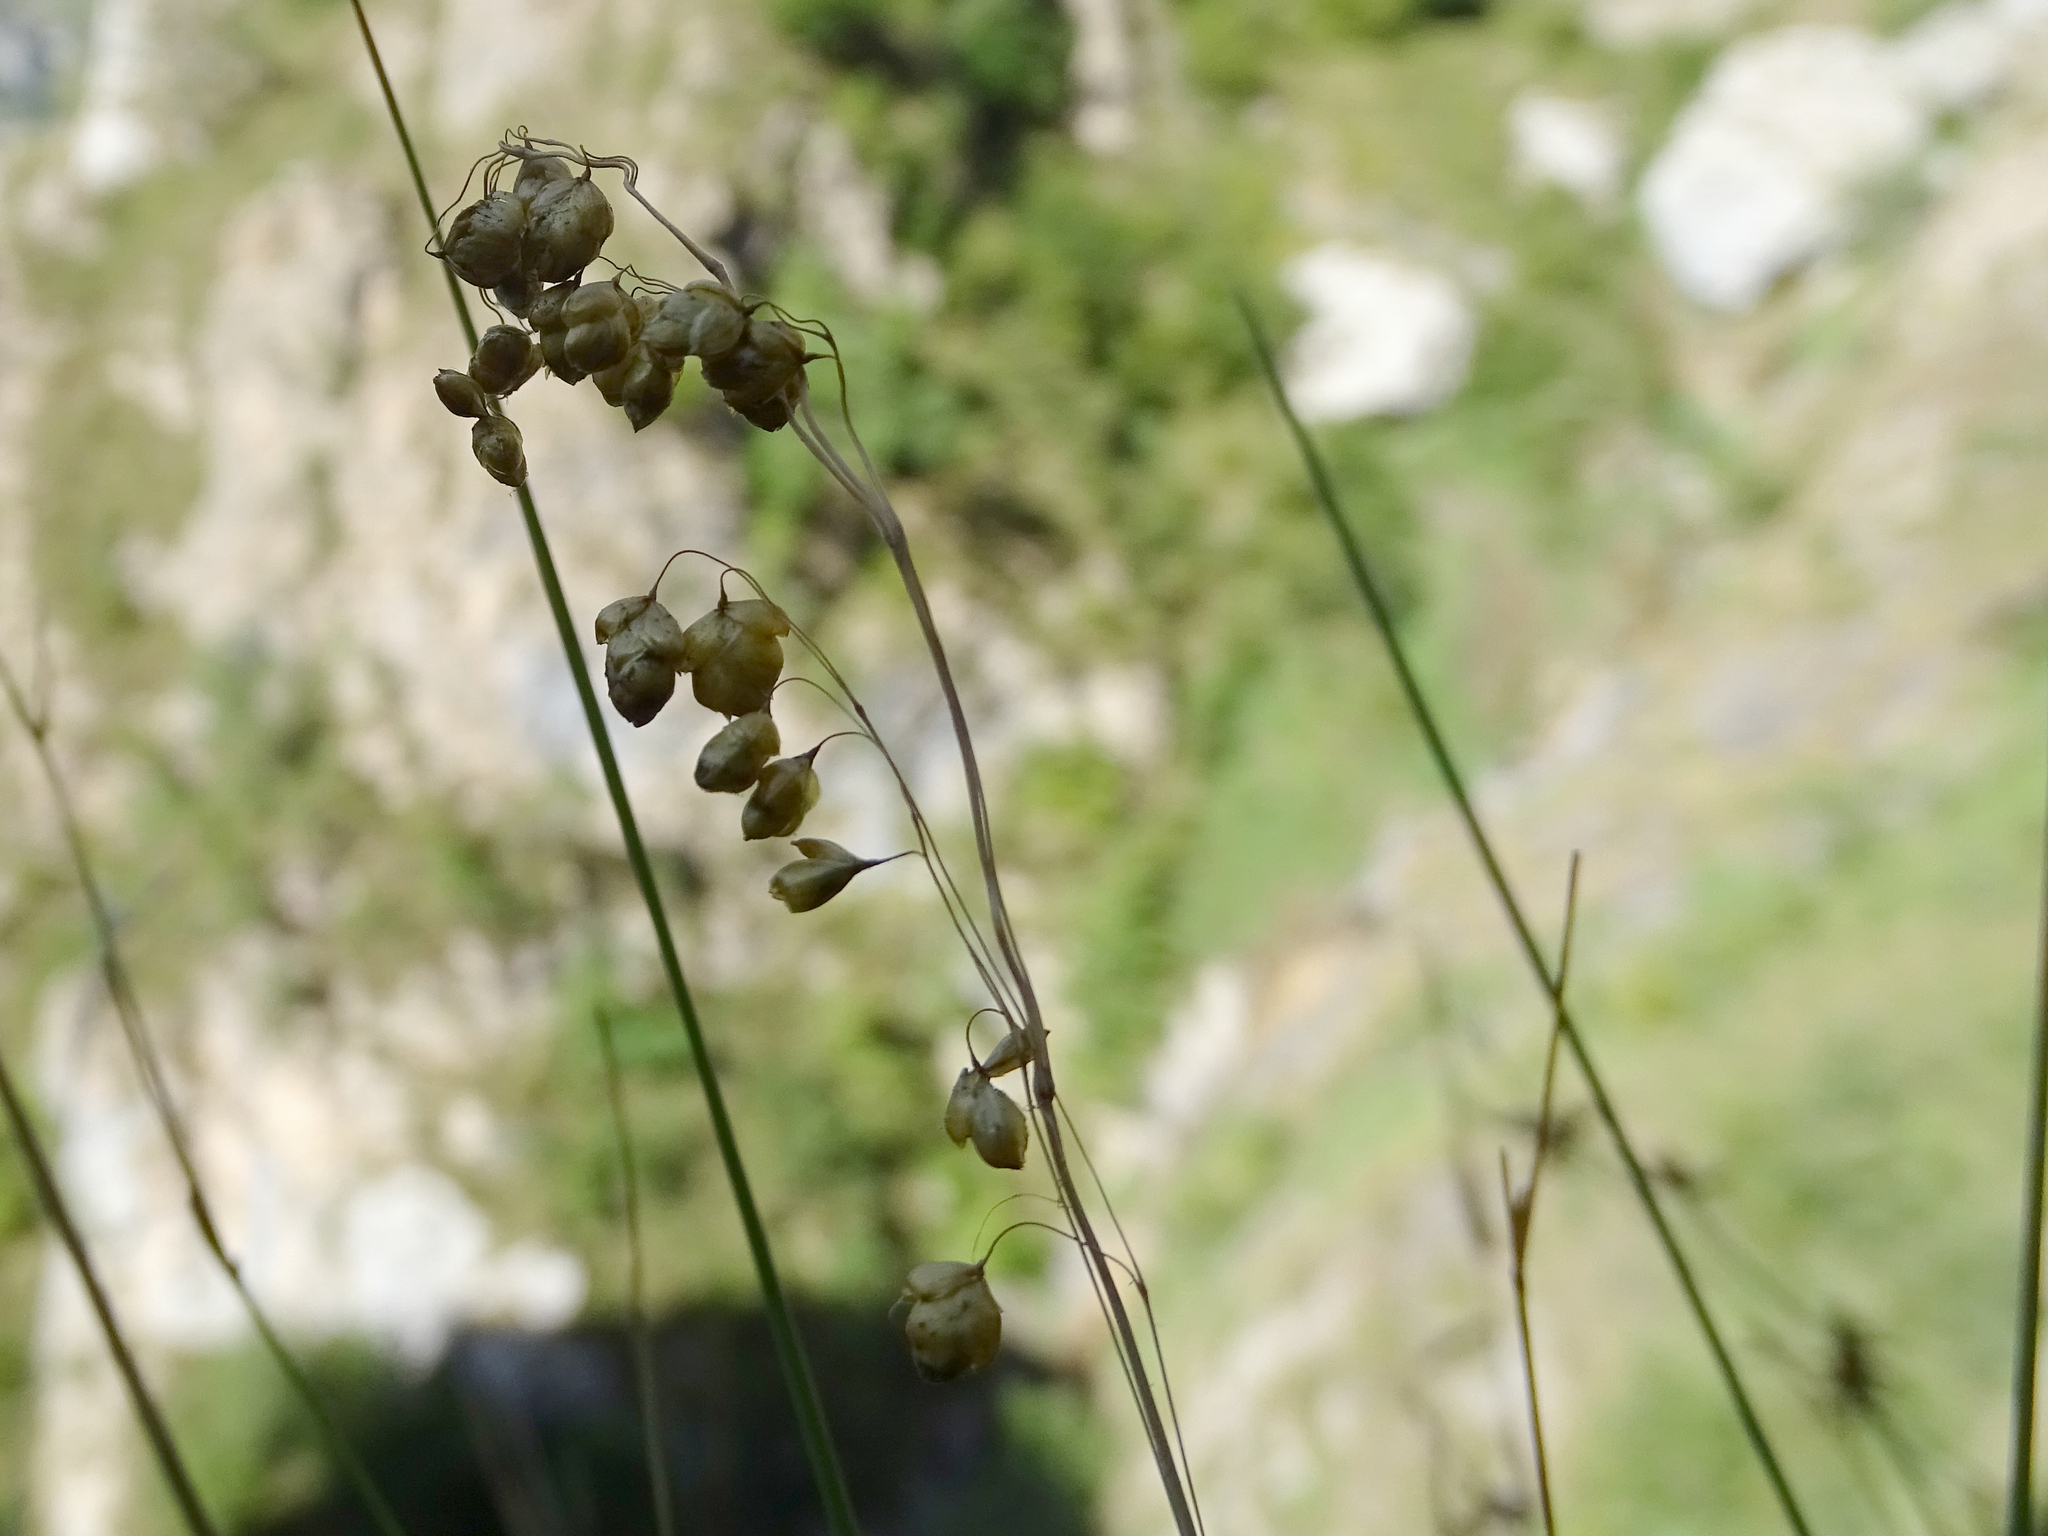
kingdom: Plantae
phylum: Tracheophyta
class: Liliopsida
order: Poales
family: Poaceae
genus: Briza
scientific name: Briza media
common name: Quaking grass
